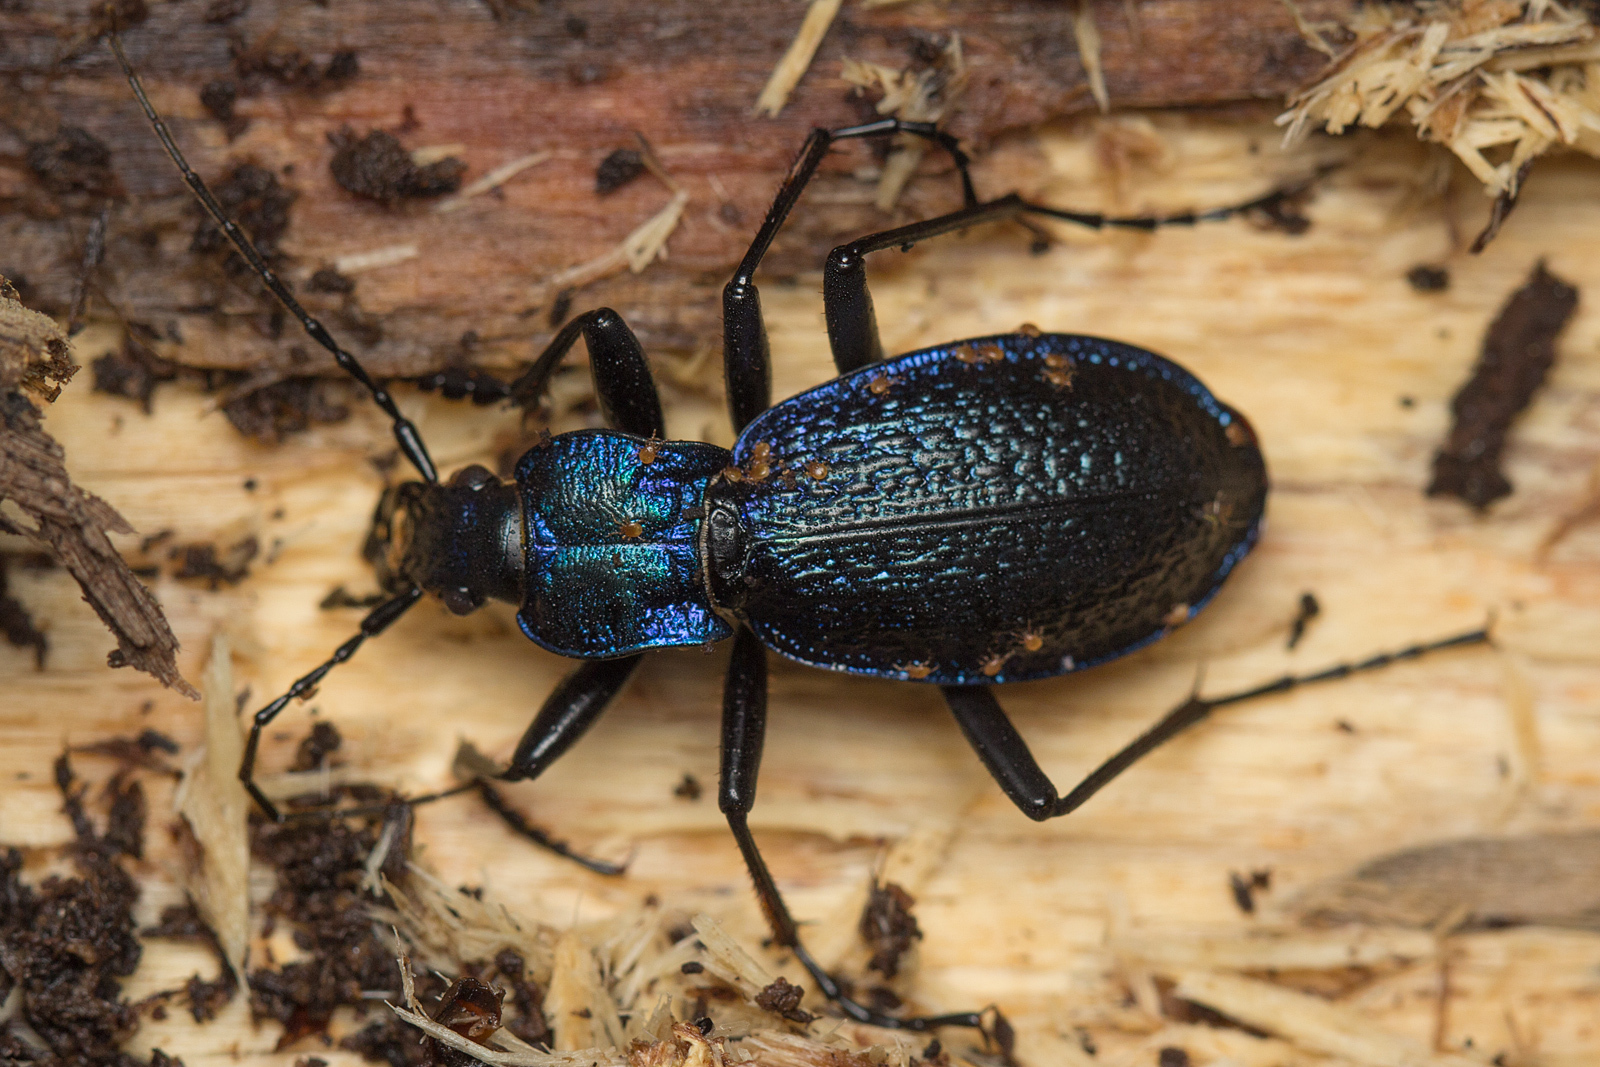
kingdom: Animalia
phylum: Arthropoda
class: Insecta
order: Coleoptera
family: Carabidae
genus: Carabus
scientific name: Carabus intricatus
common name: Blue ground beetle
